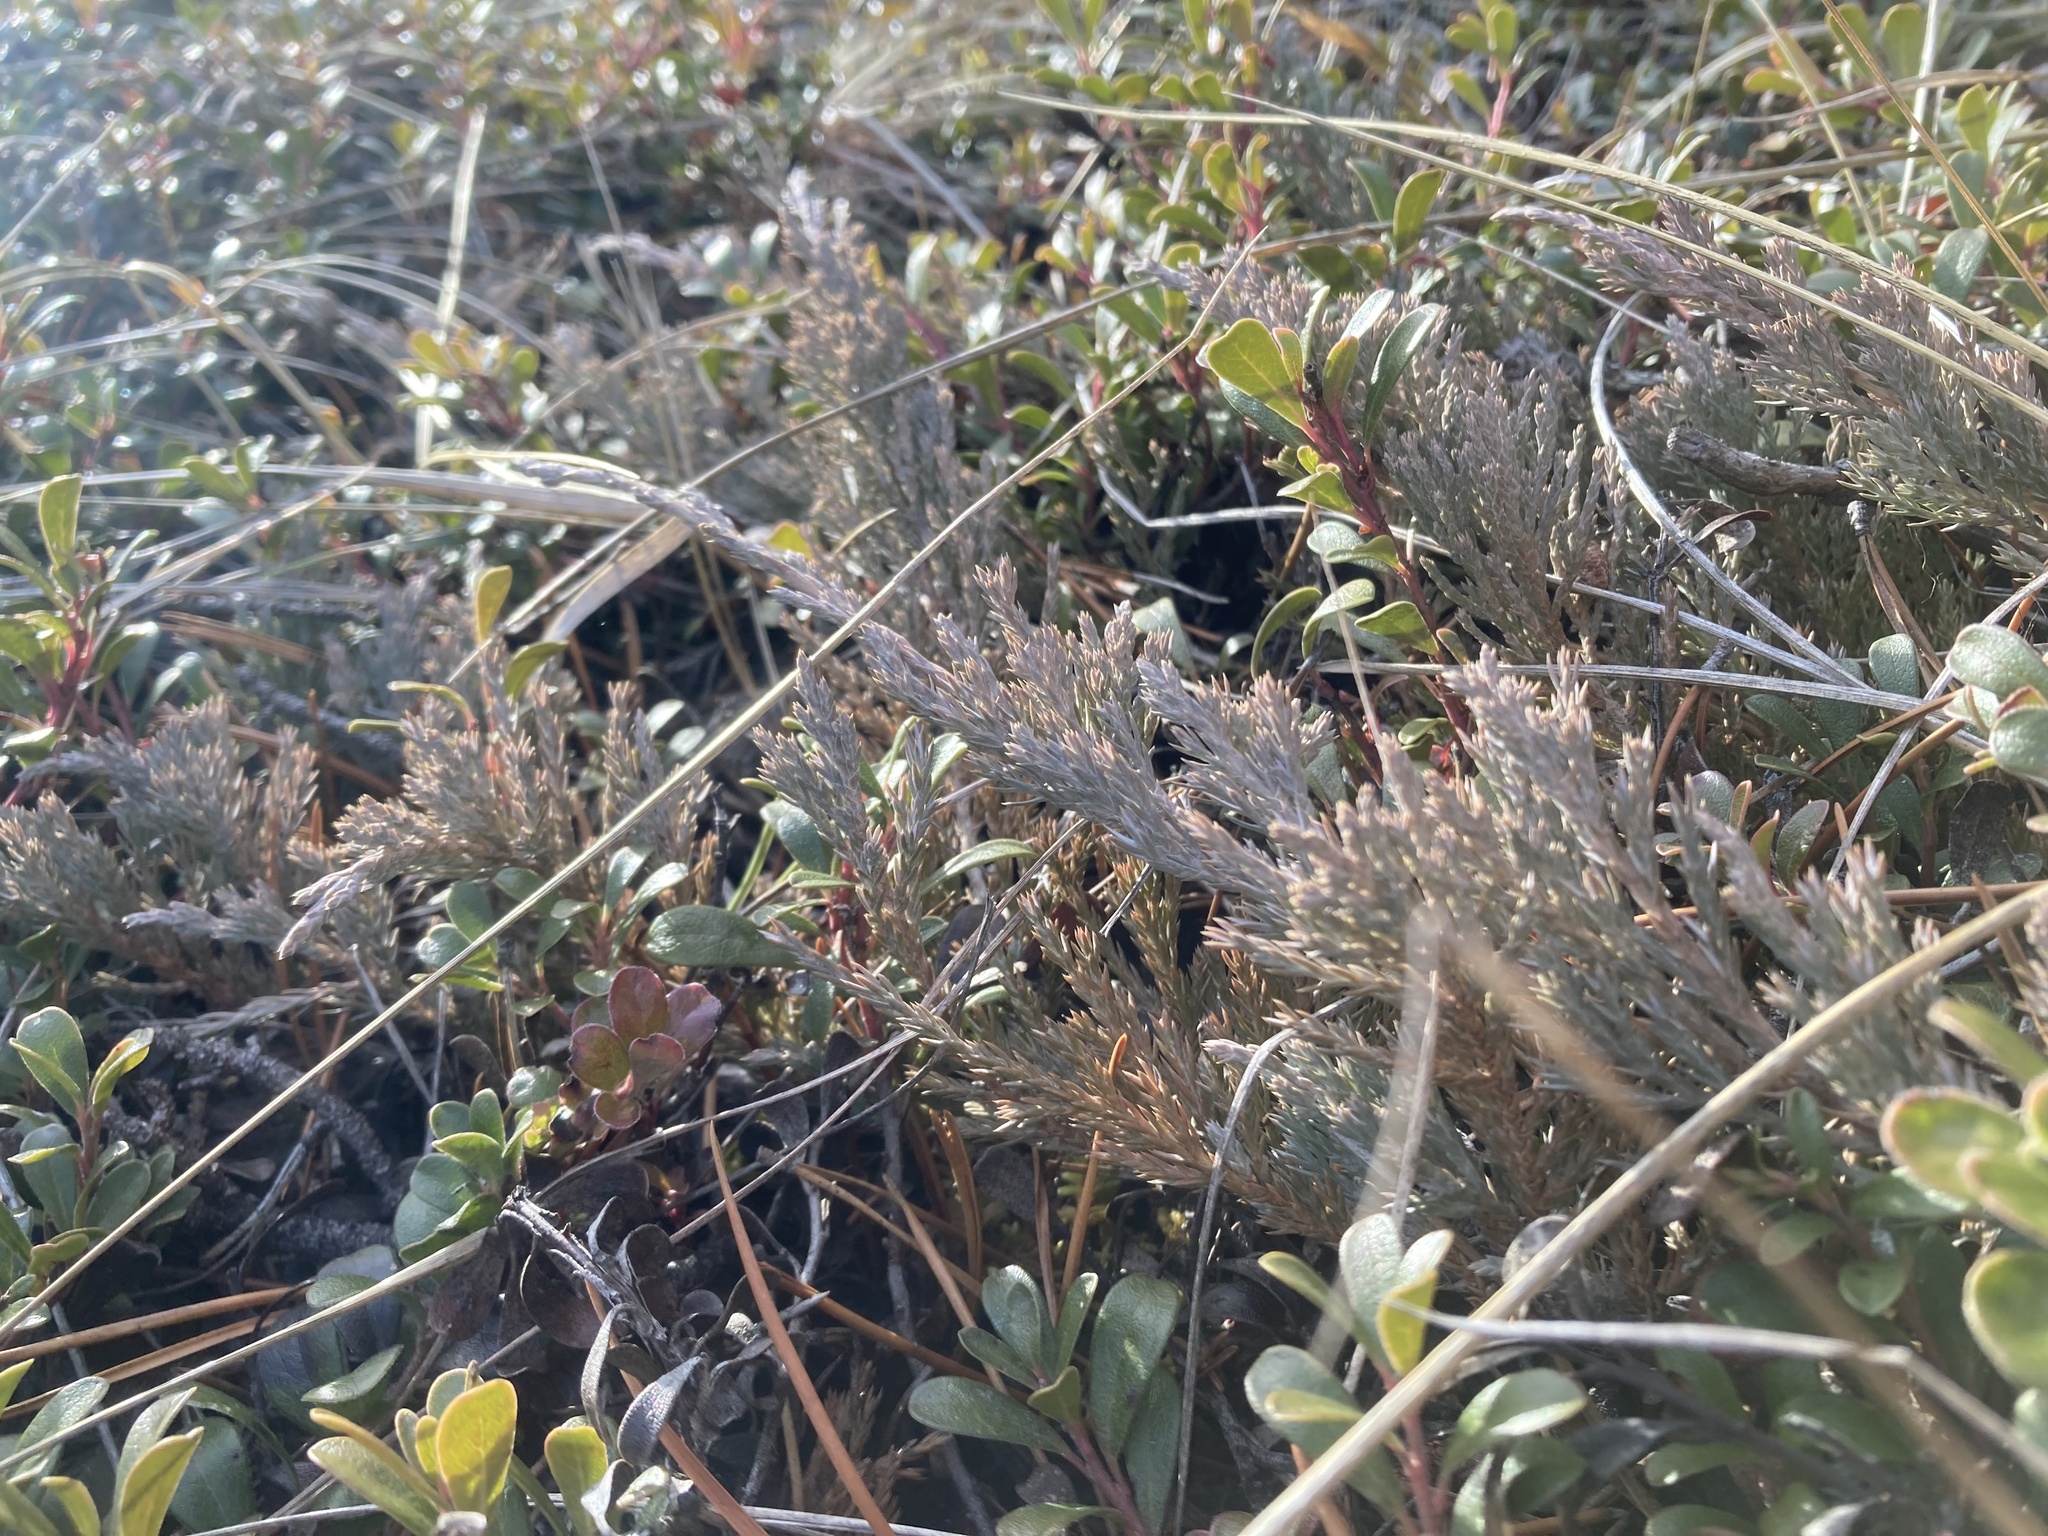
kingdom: Plantae
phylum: Tracheophyta
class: Pinopsida
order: Pinales
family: Cupressaceae
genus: Juniperus
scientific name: Juniperus horizontalis
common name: Creeping juniper
